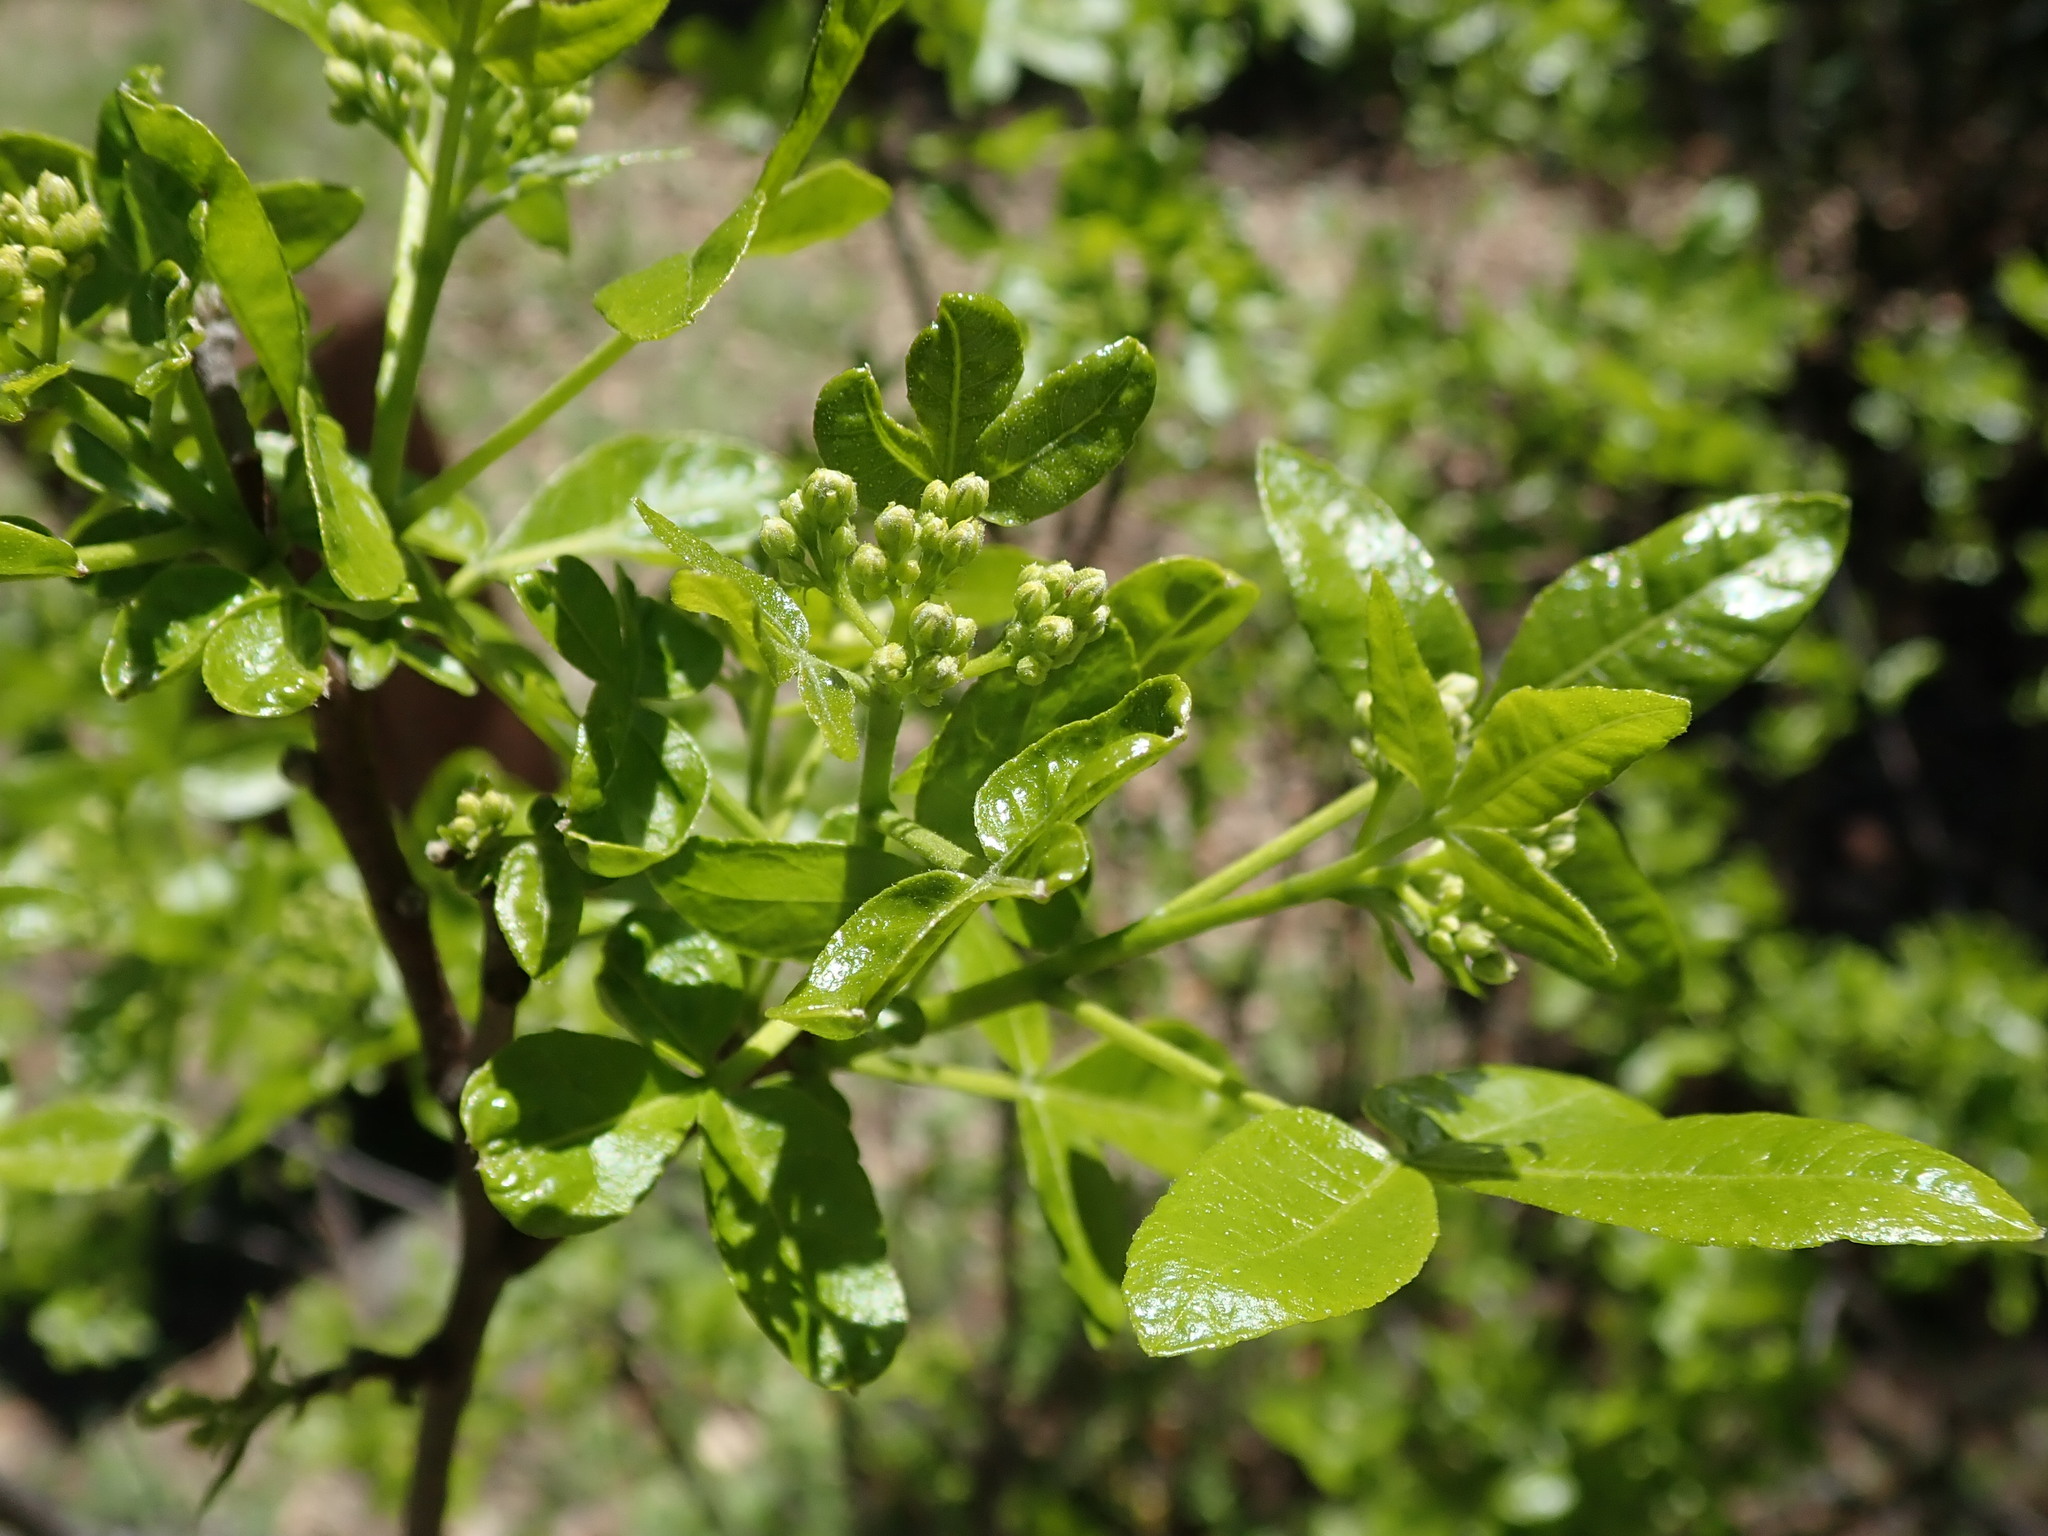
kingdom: Plantae
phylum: Tracheophyta
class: Magnoliopsida
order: Sapindales
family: Rutaceae
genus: Ptelea
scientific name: Ptelea crenulata
